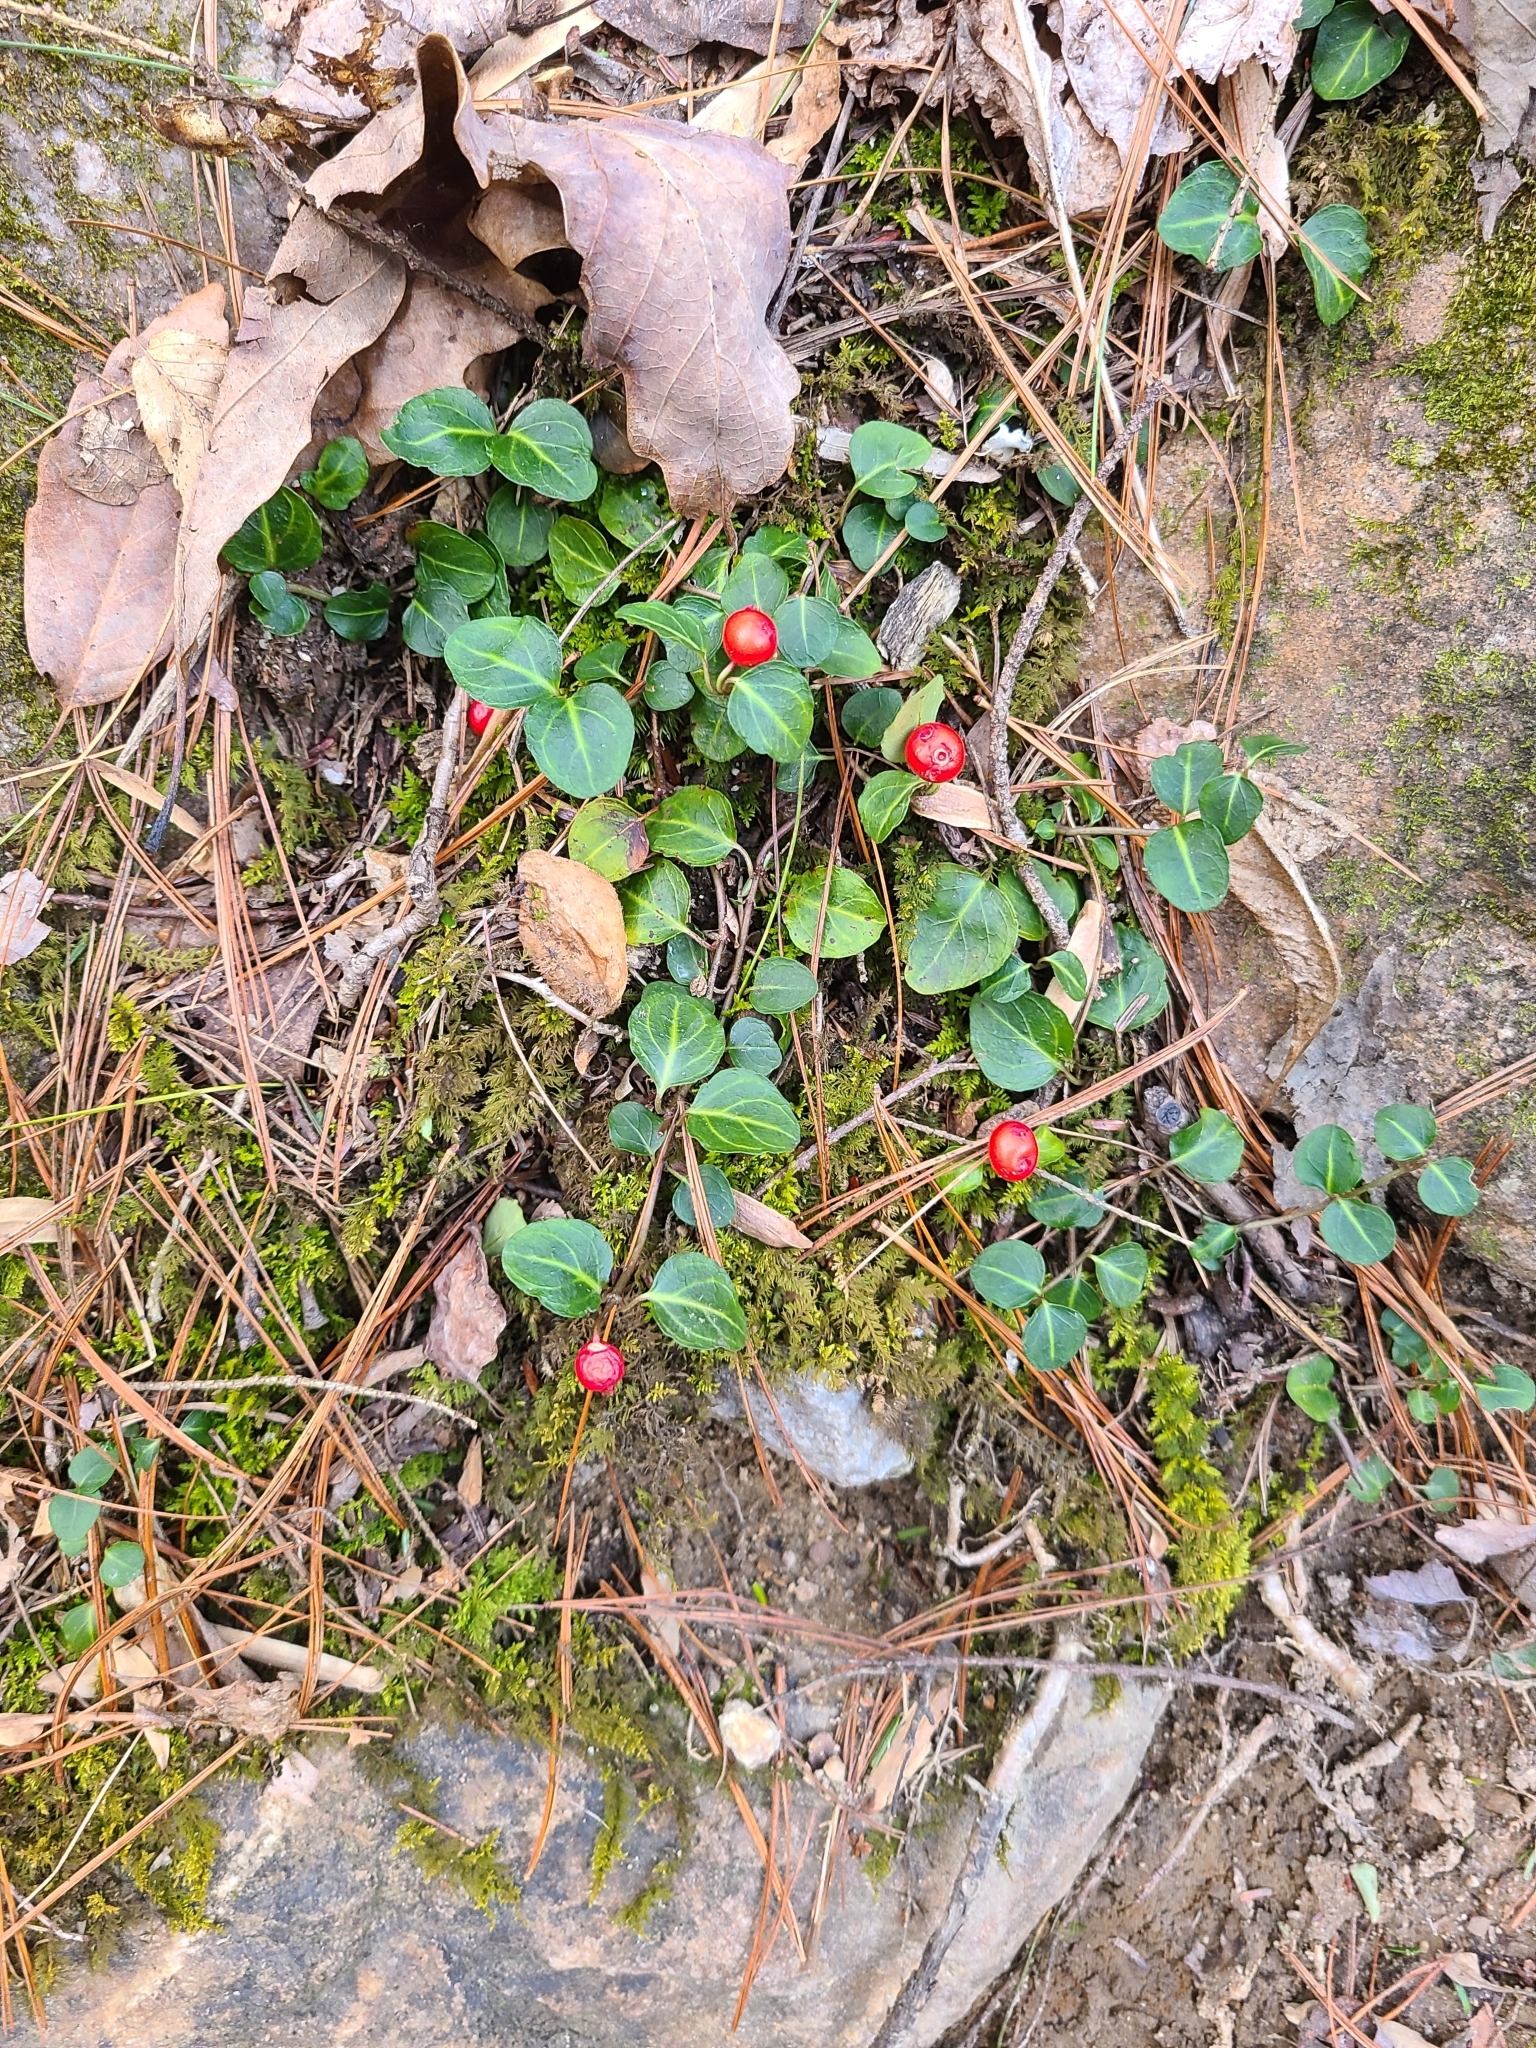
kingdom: Plantae
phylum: Tracheophyta
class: Magnoliopsida
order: Gentianales
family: Rubiaceae
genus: Mitchella
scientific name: Mitchella repens
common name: Partridge-berry
